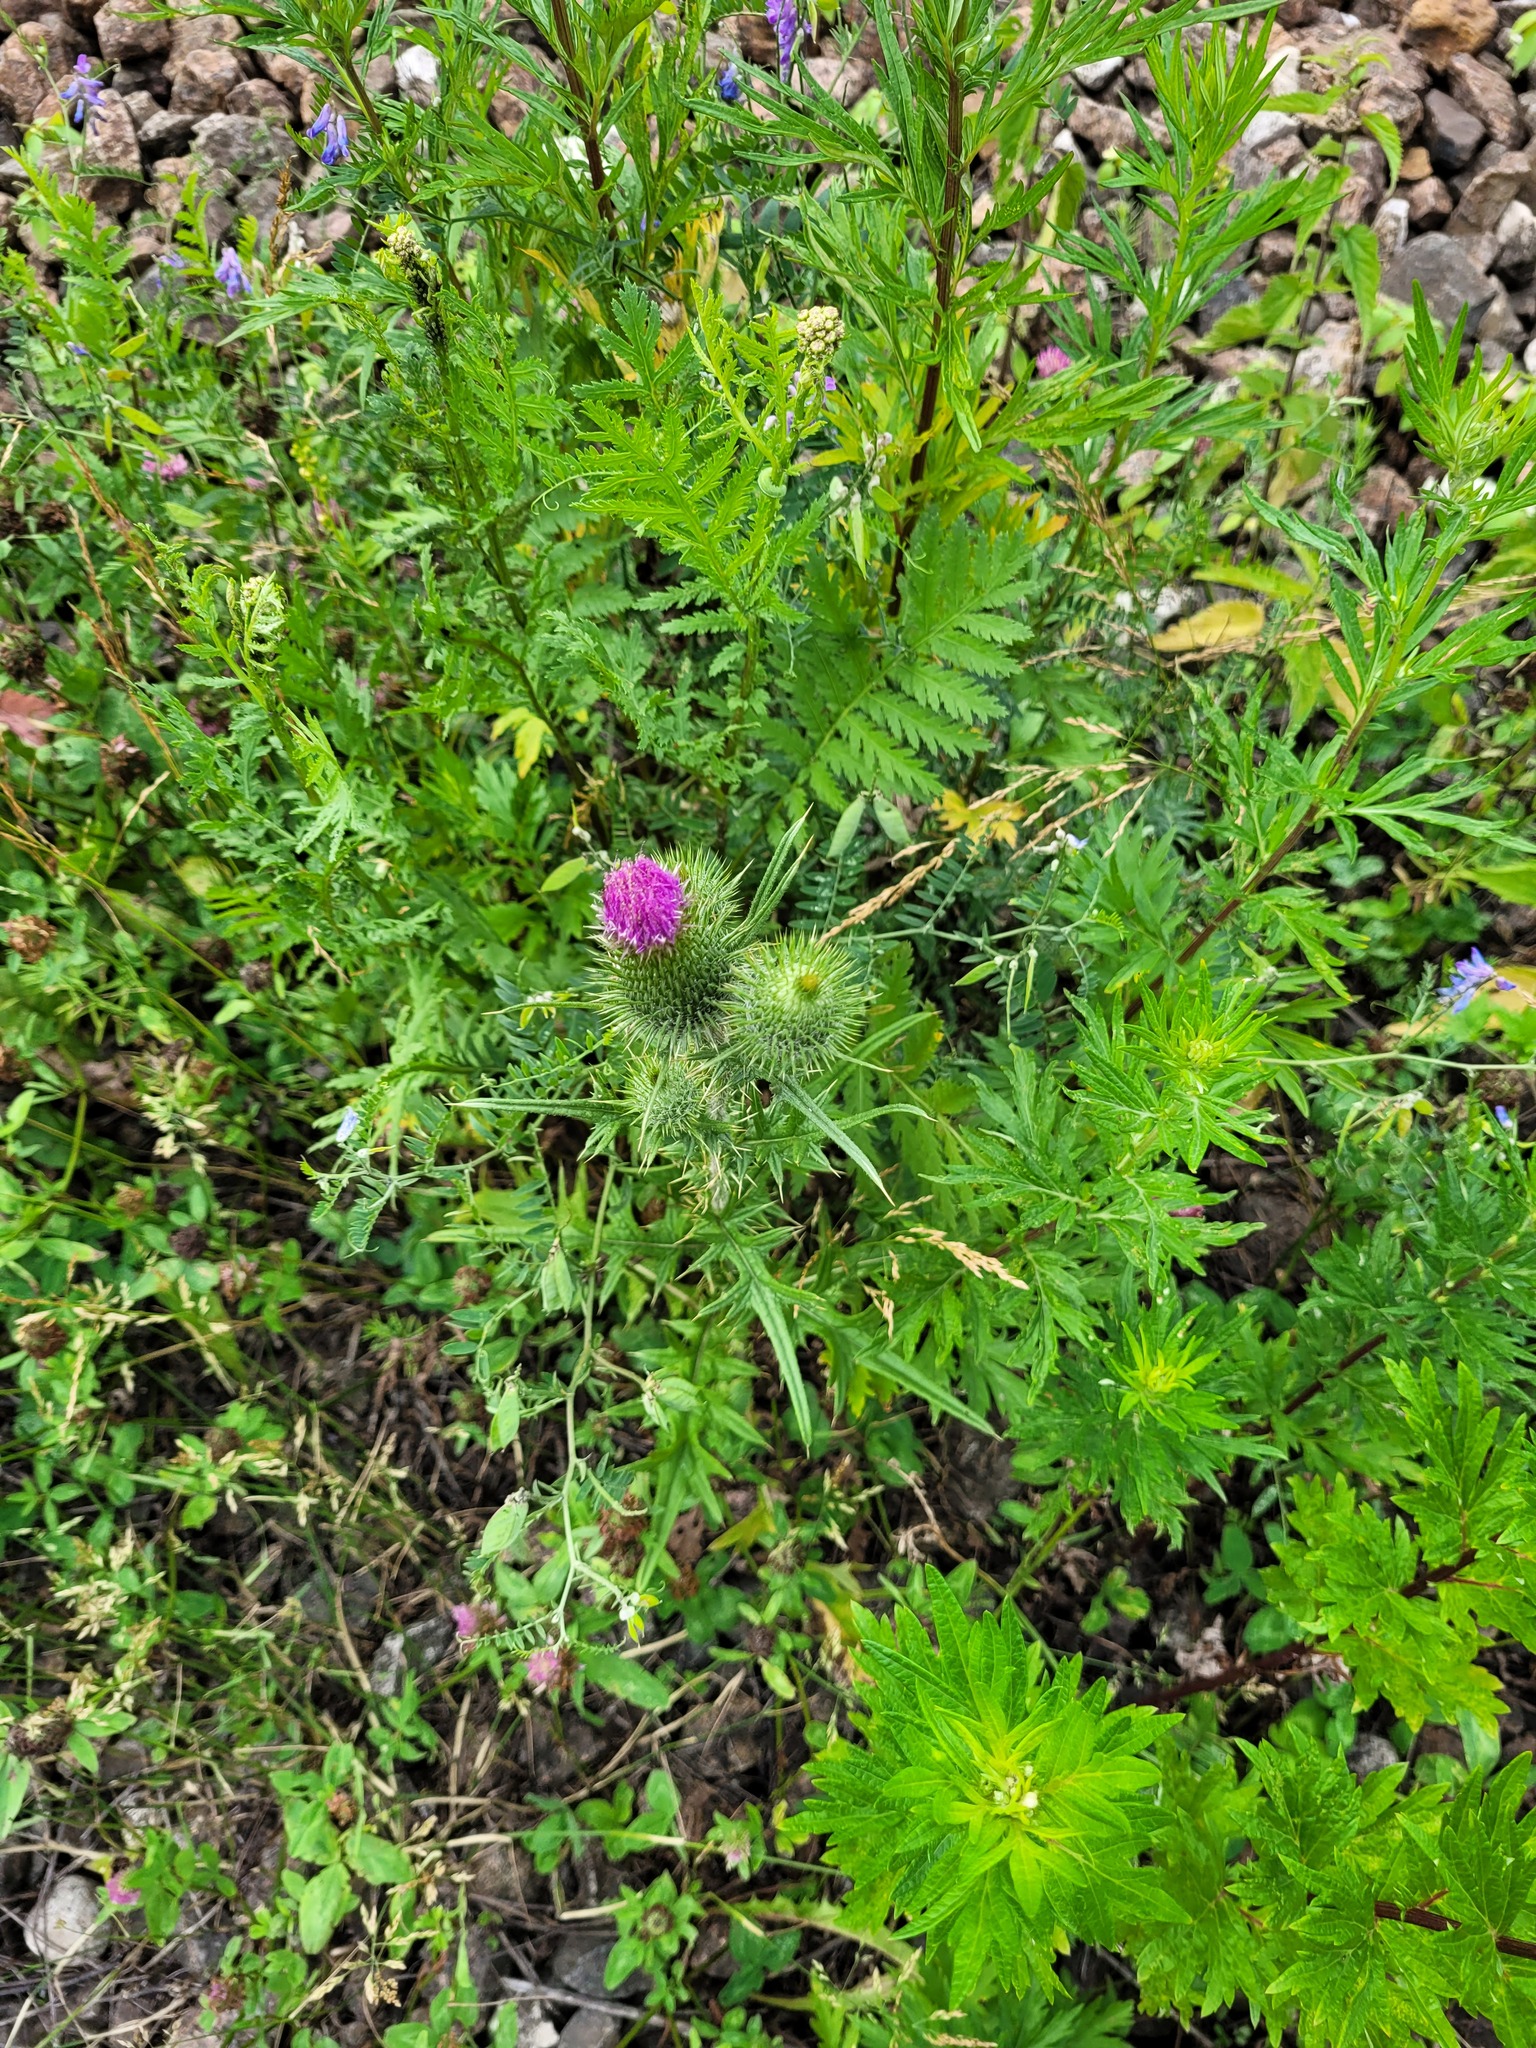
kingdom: Plantae
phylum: Tracheophyta
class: Magnoliopsida
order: Asterales
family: Asteraceae
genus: Cirsium
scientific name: Cirsium vulgare
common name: Bull thistle
